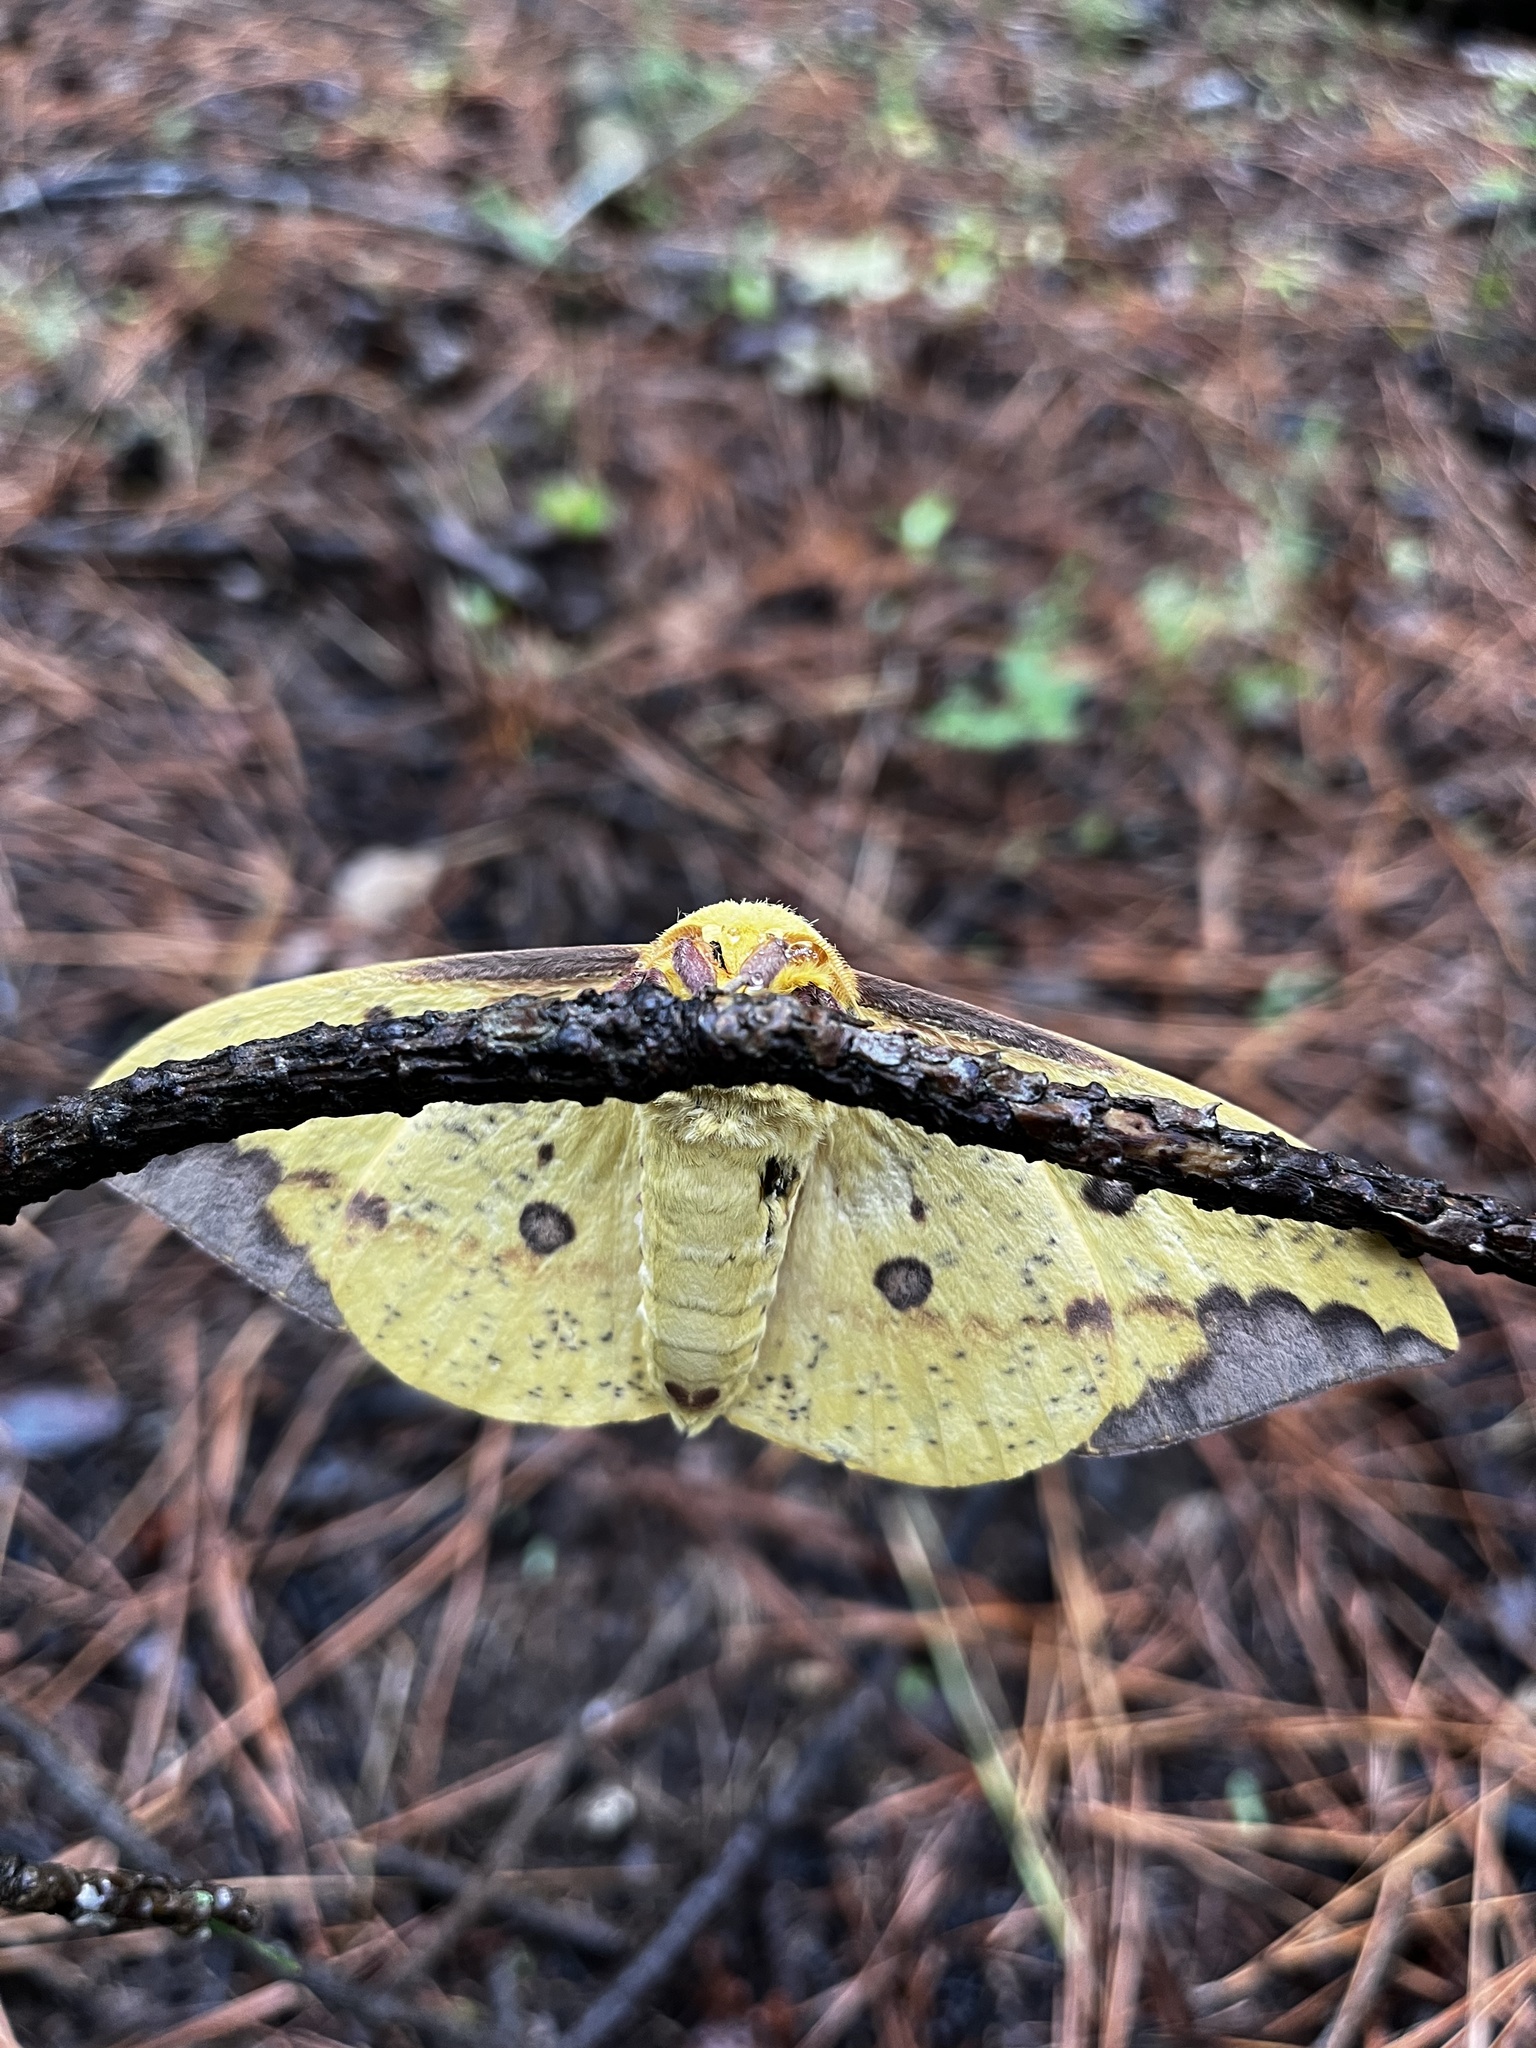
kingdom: Animalia
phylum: Arthropoda
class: Insecta
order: Lepidoptera
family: Saturniidae
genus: Eacles
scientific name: Eacles imperialis
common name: Imperial moth
